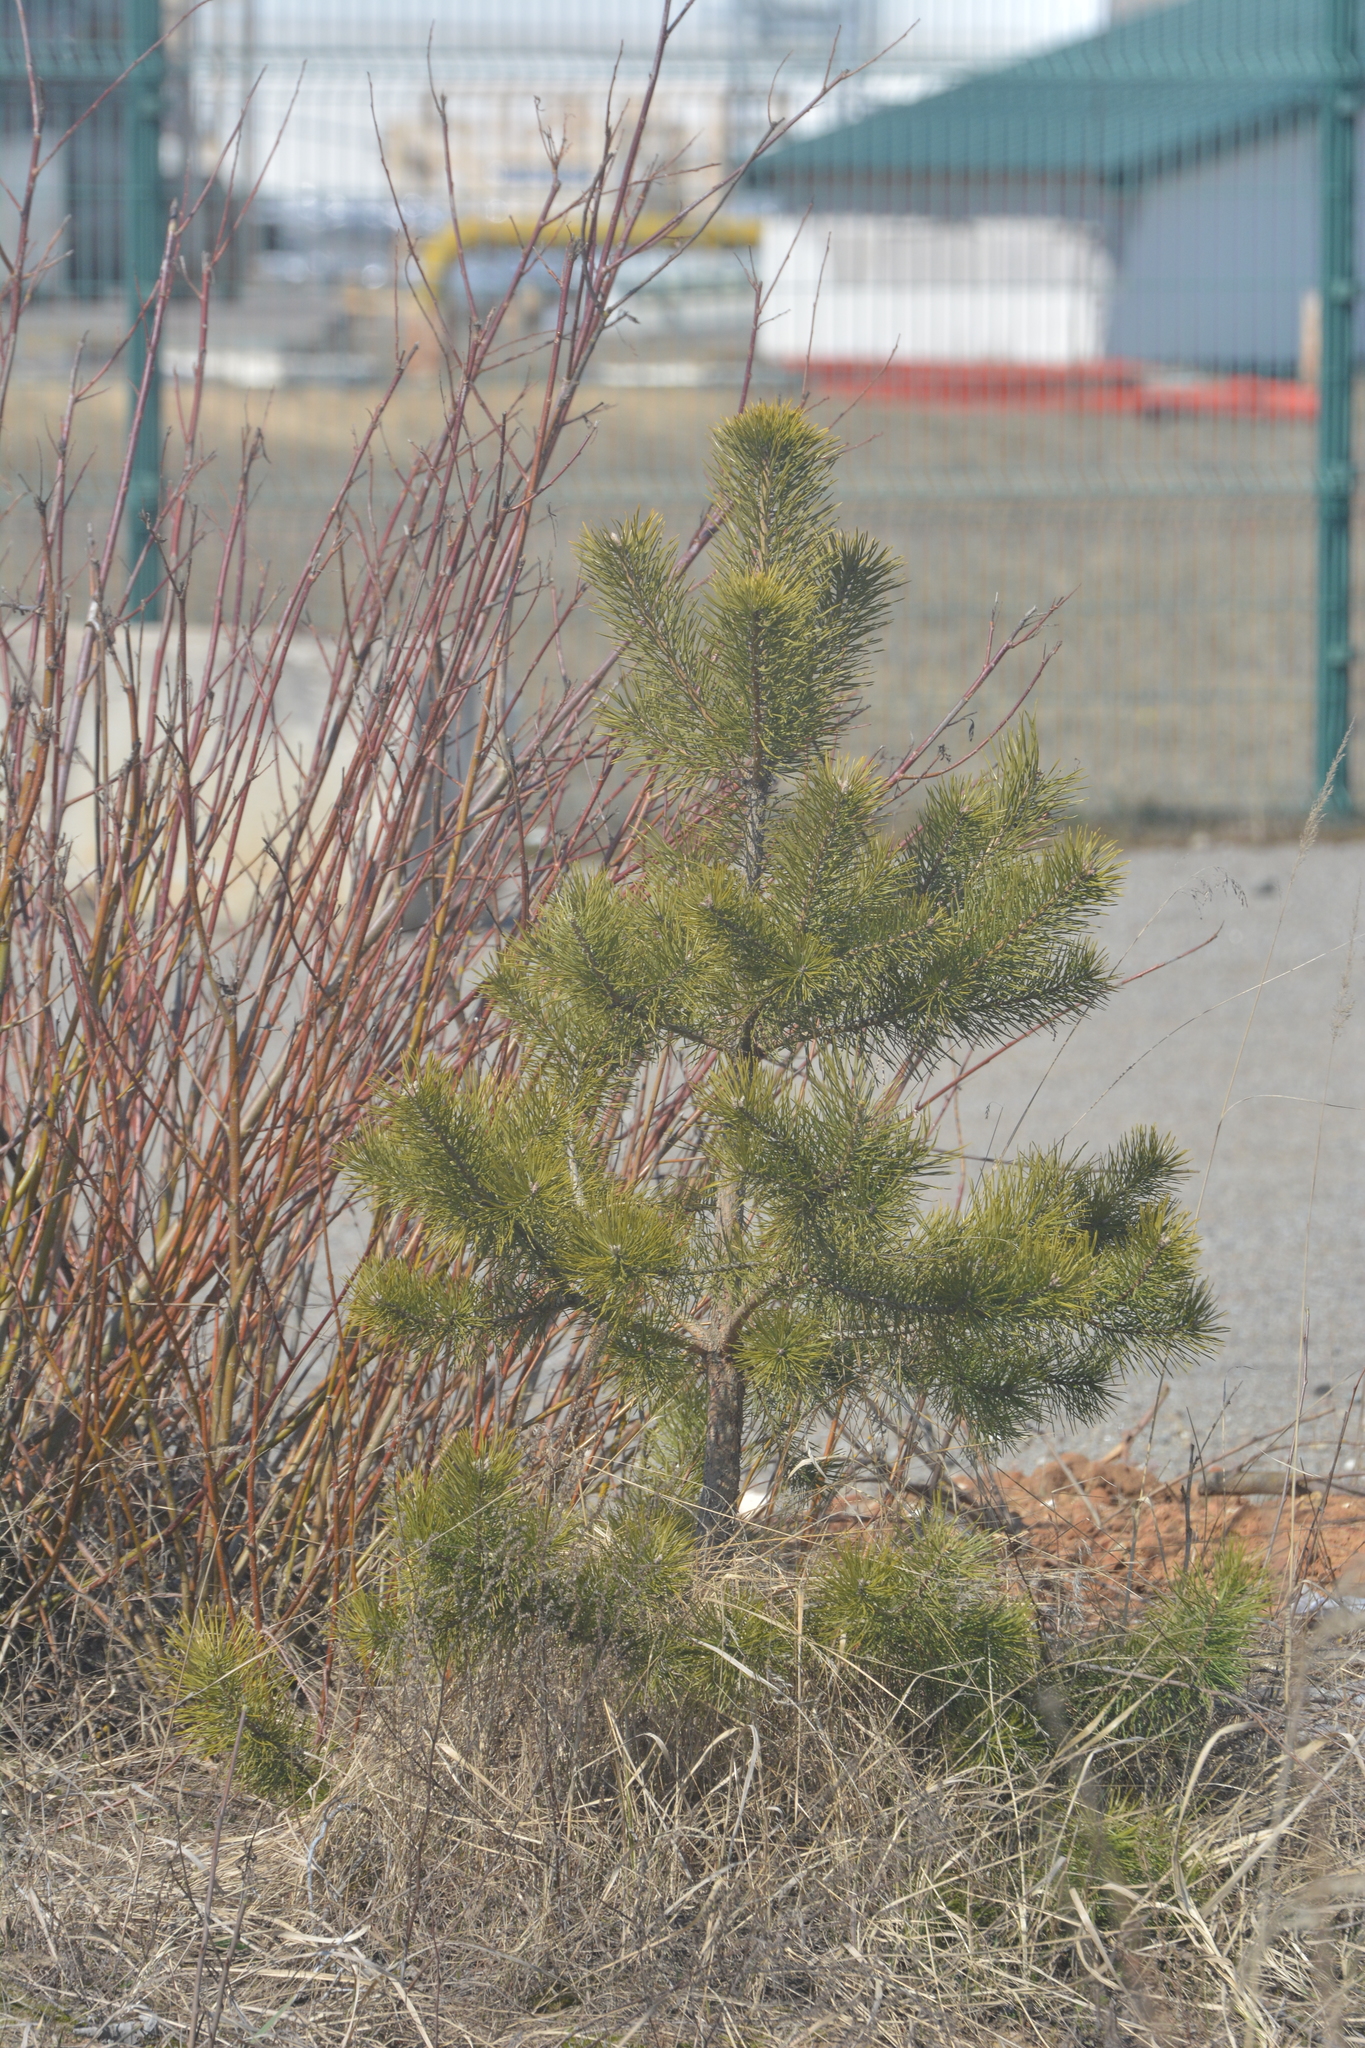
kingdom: Plantae
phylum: Tracheophyta
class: Pinopsida
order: Pinales
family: Pinaceae
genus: Pinus
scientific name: Pinus sylvestris
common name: Scots pine
